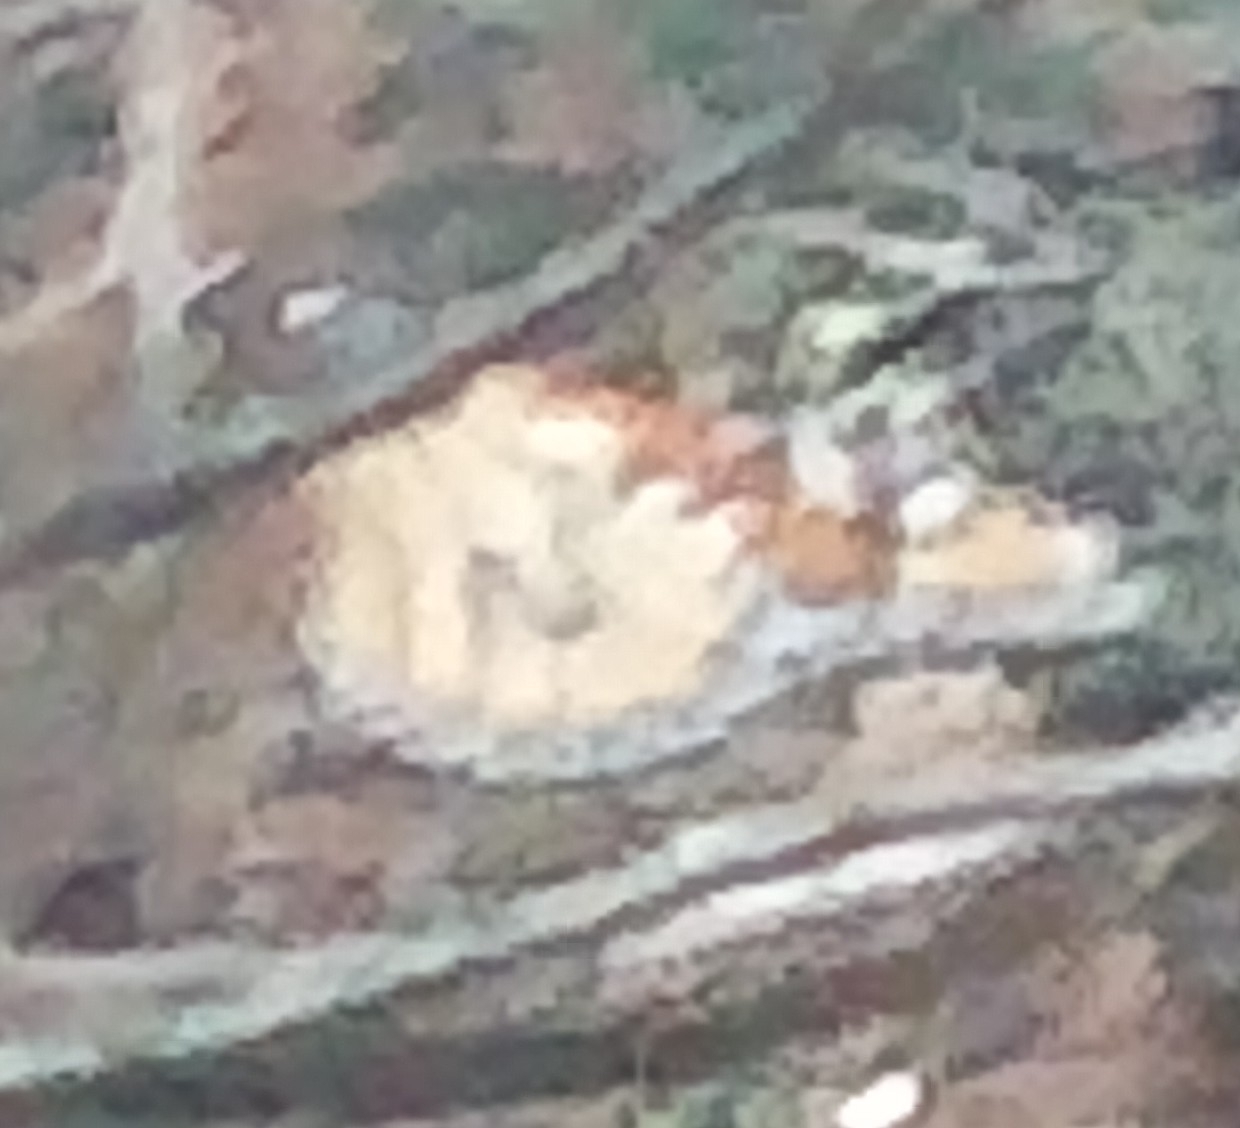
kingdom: Animalia
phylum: Arthropoda
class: Insecta
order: Lepidoptera
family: Nymphalidae
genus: Danaus
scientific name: Danaus plexippus
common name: Monarch
